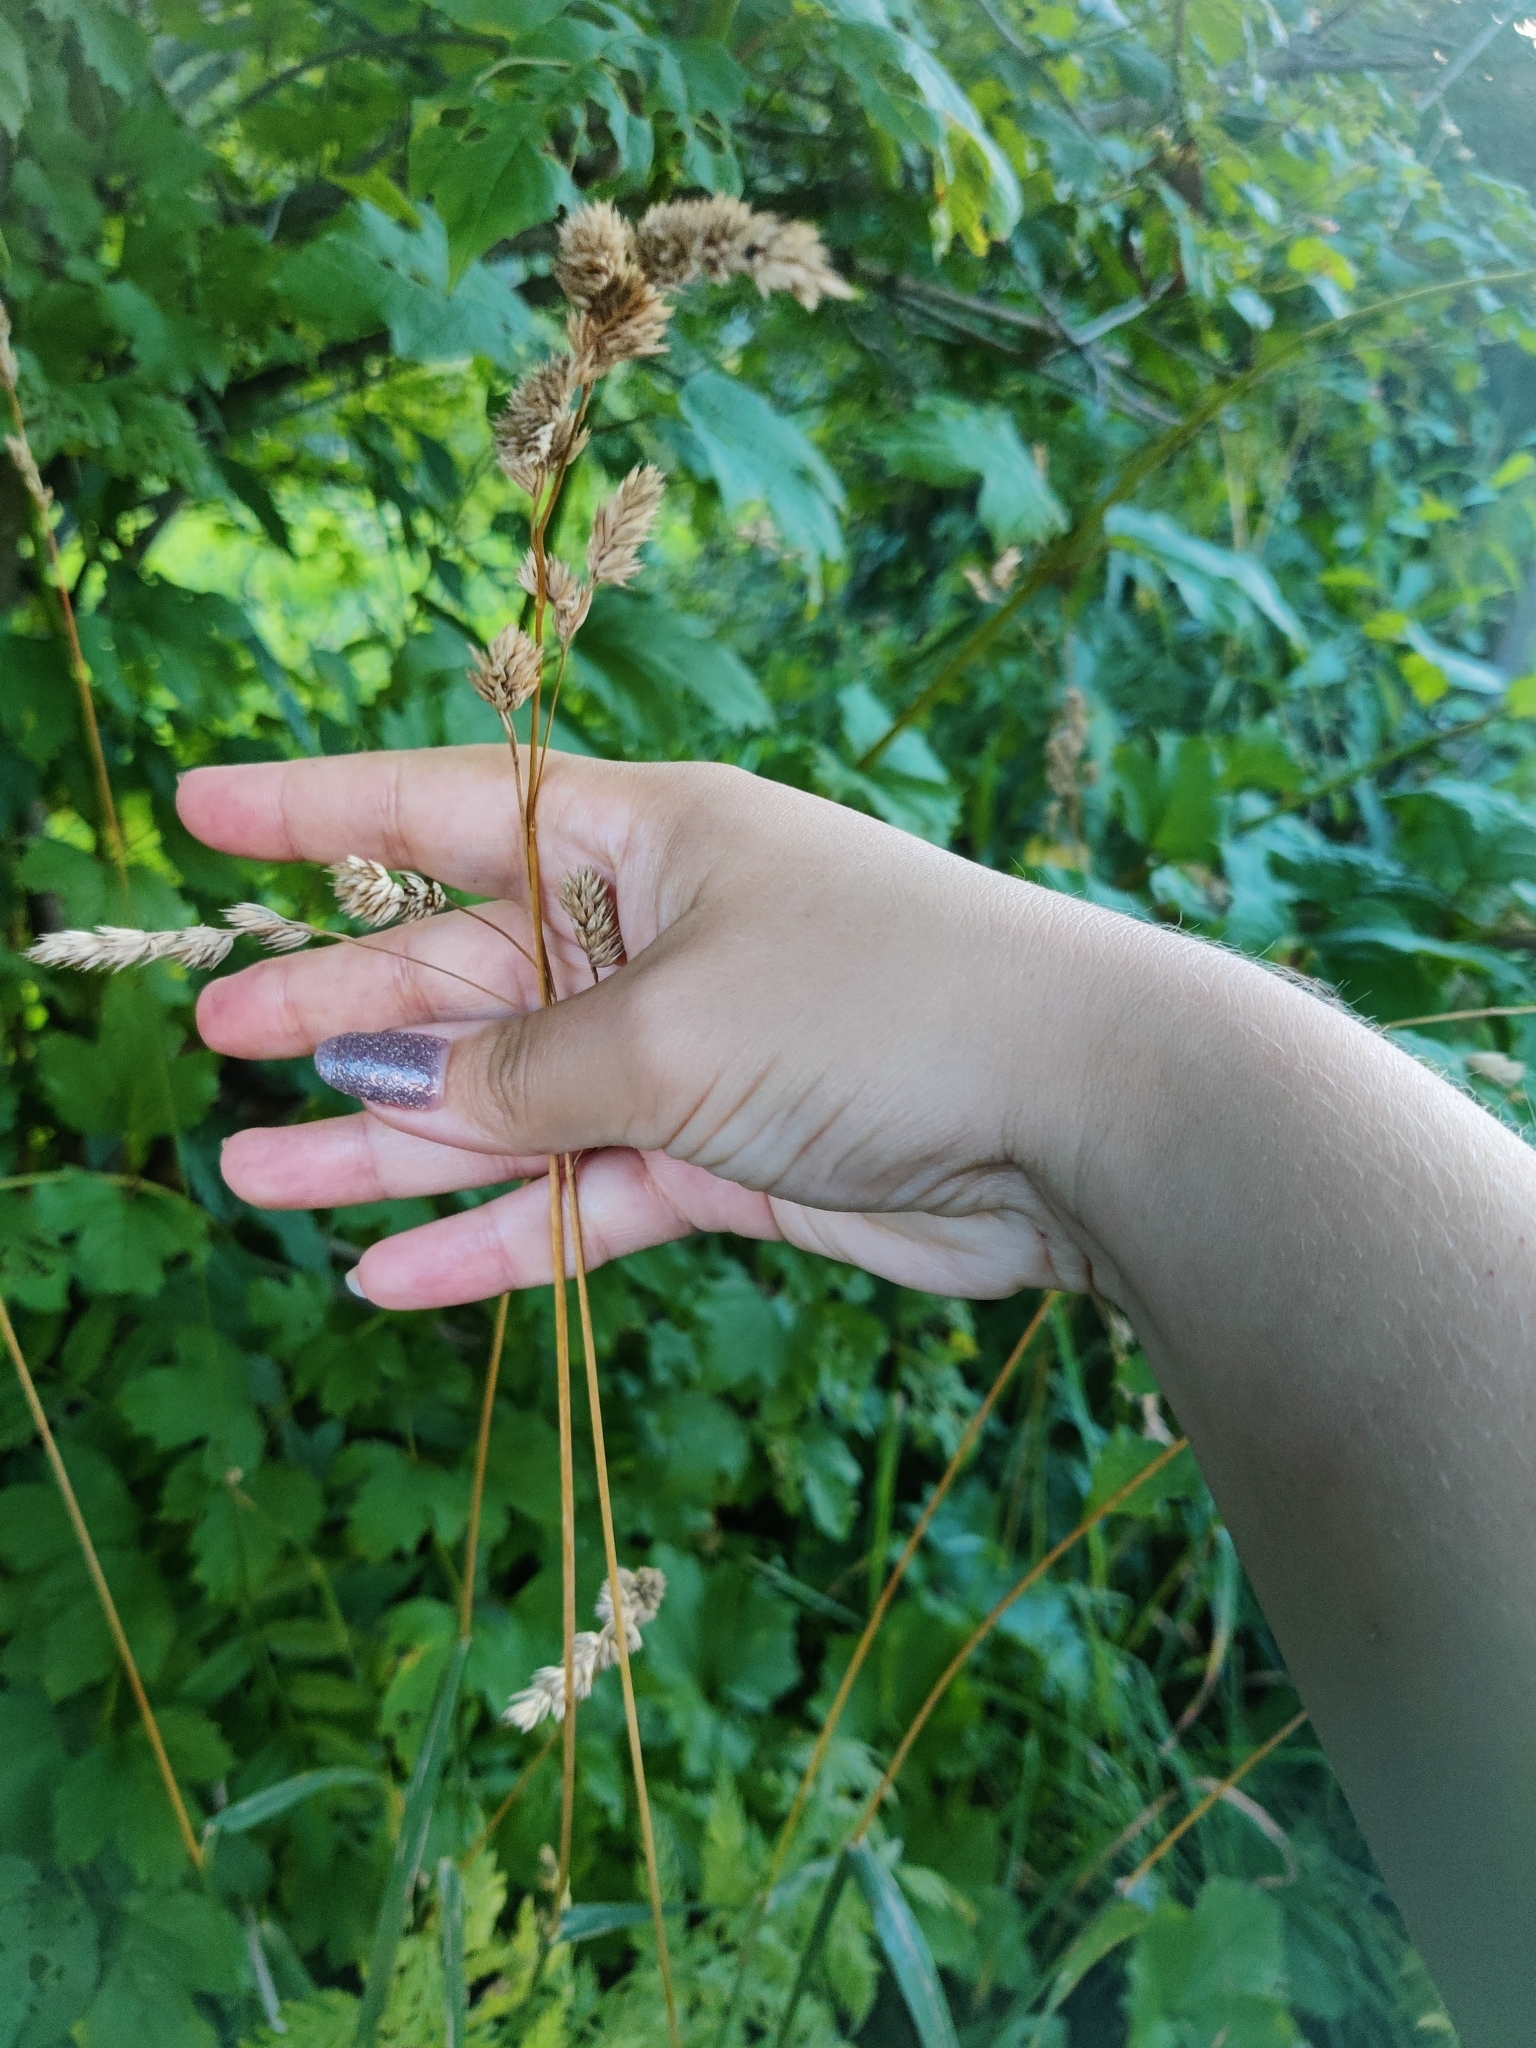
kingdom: Plantae
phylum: Tracheophyta
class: Liliopsida
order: Poales
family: Poaceae
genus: Dactylis
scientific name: Dactylis glomerata
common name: Orchardgrass
